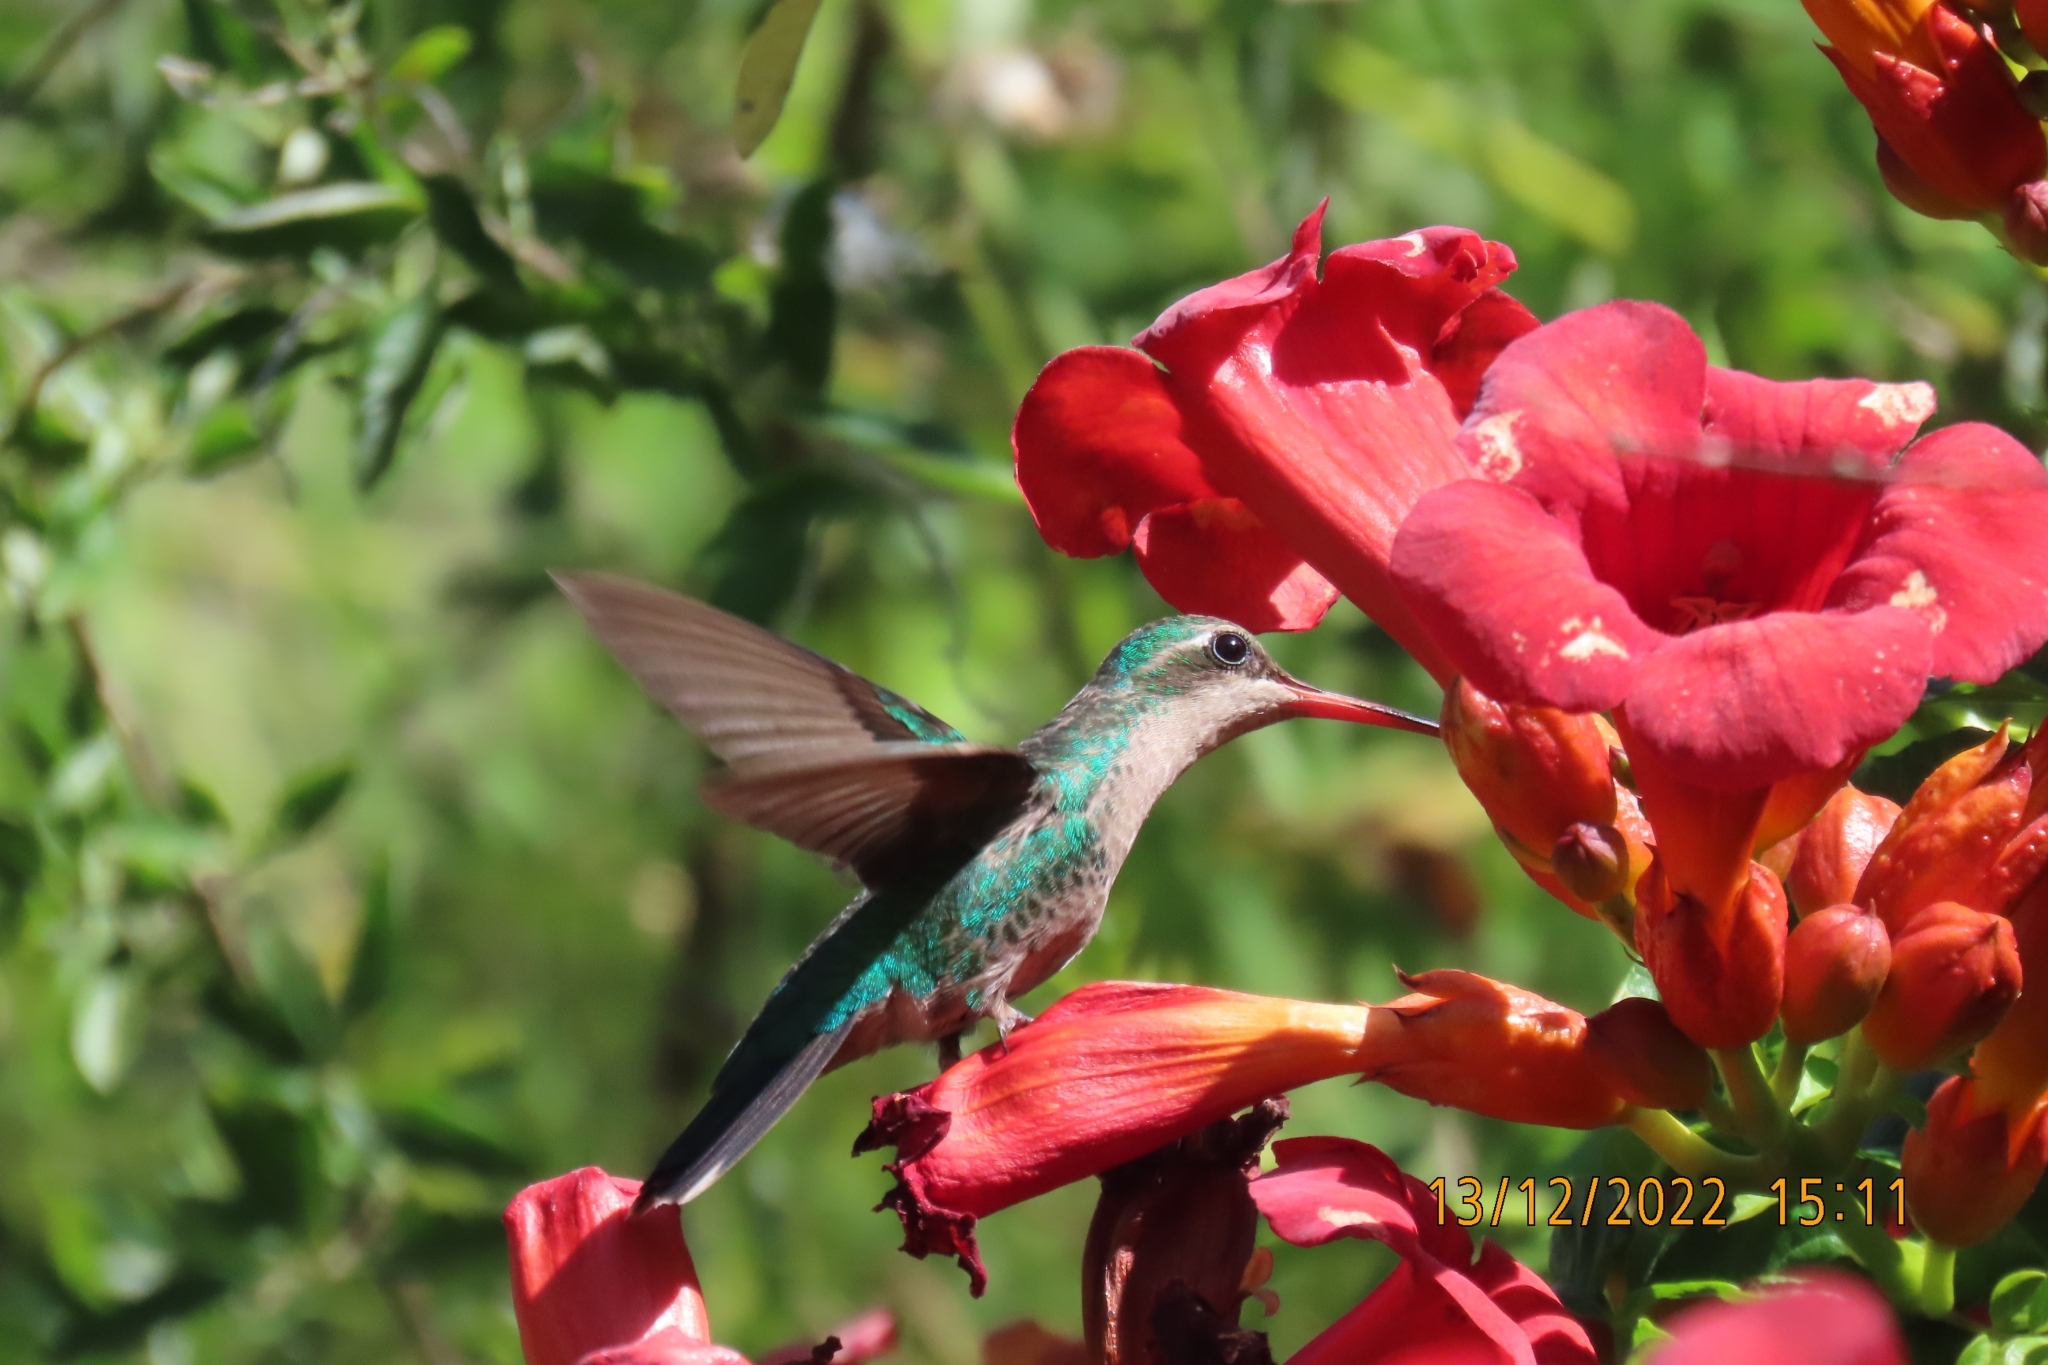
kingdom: Animalia
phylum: Chordata
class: Aves
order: Apodiformes
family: Trochilidae
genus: Chlorostilbon
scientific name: Chlorostilbon lucidus
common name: Glittering-bellied emerald
